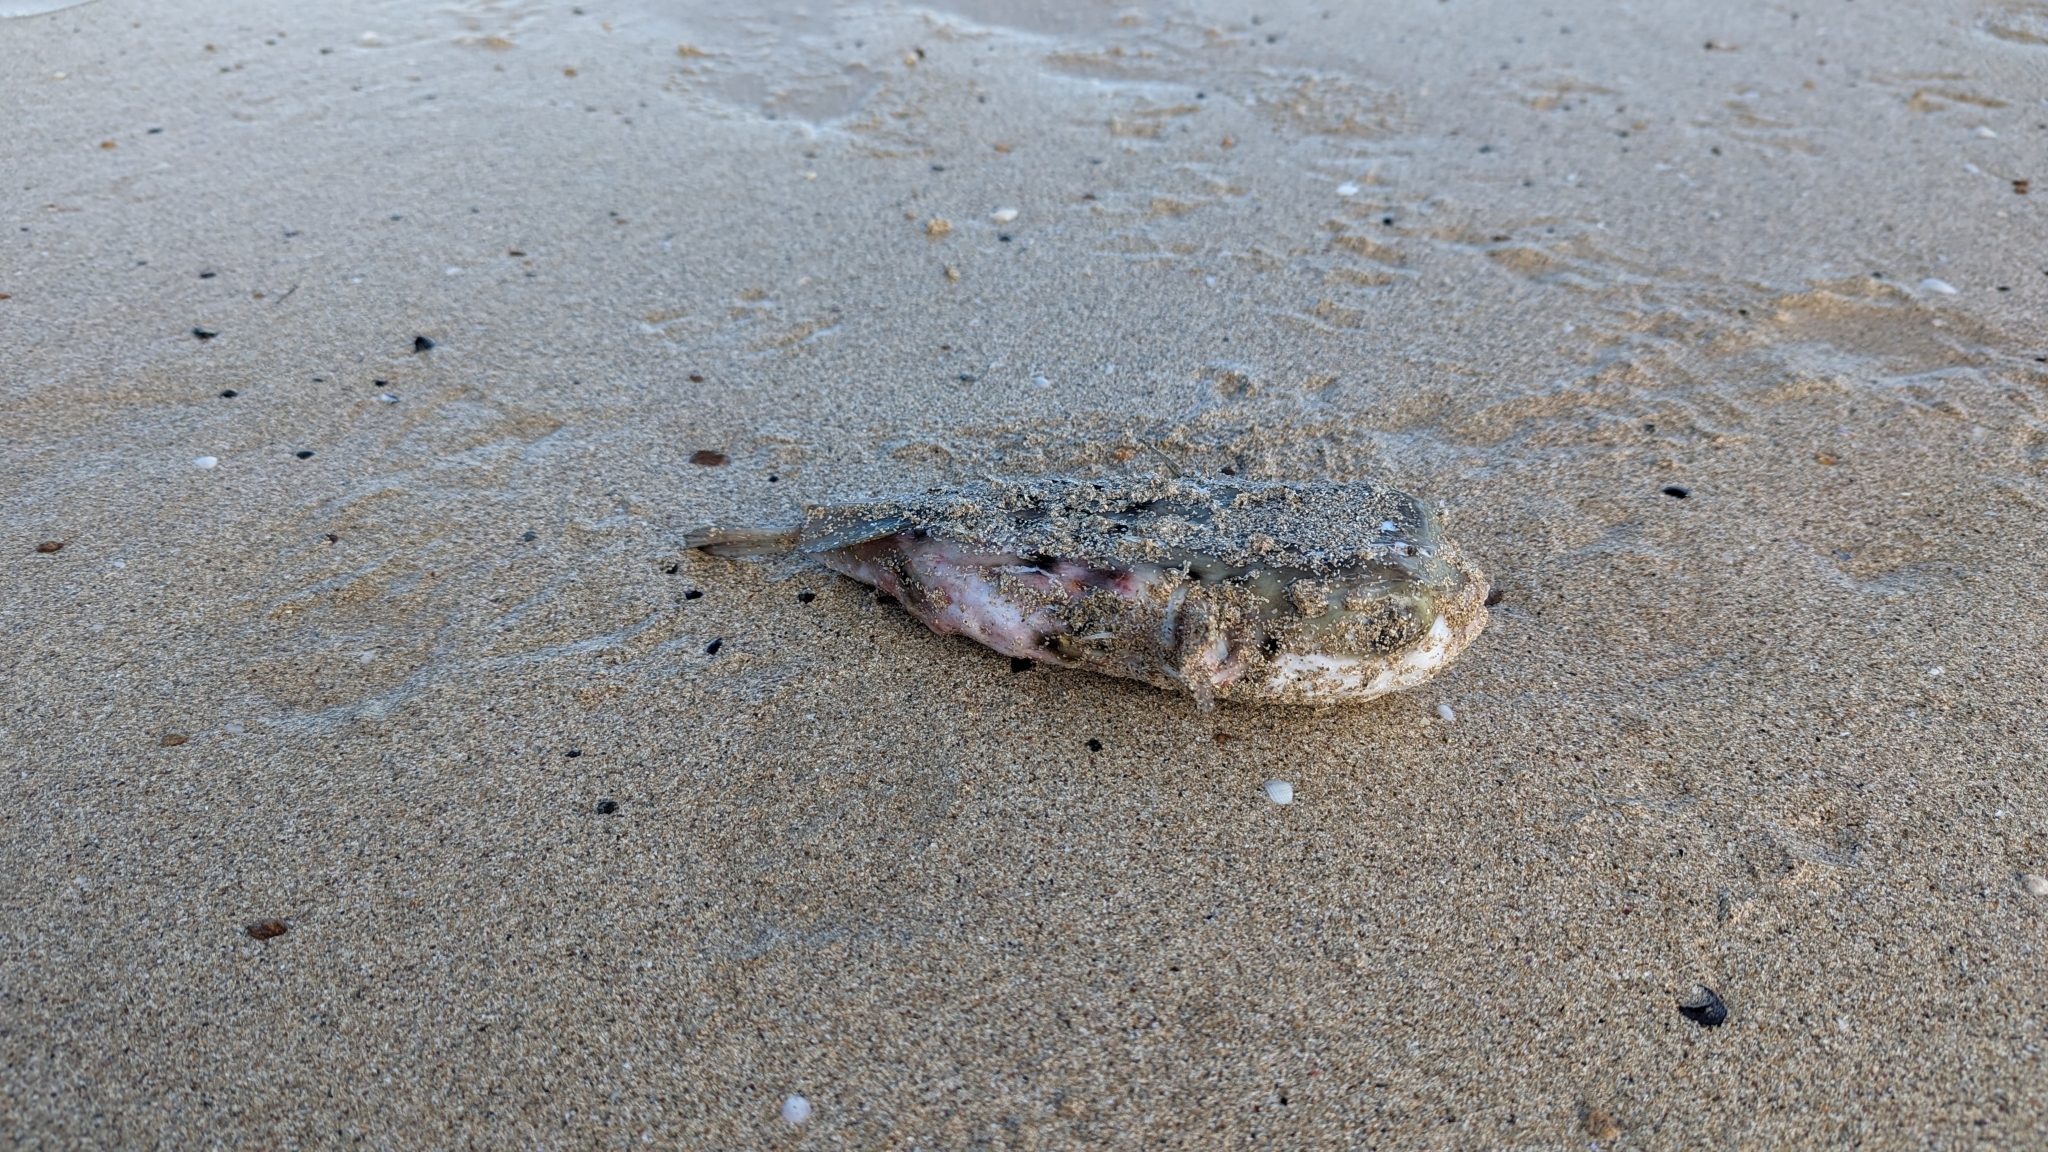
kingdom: Animalia
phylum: Chordata
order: Tetraodontiformes
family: Diodontidae
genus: Allomycterus
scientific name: Allomycterus pilatus
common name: No common name
